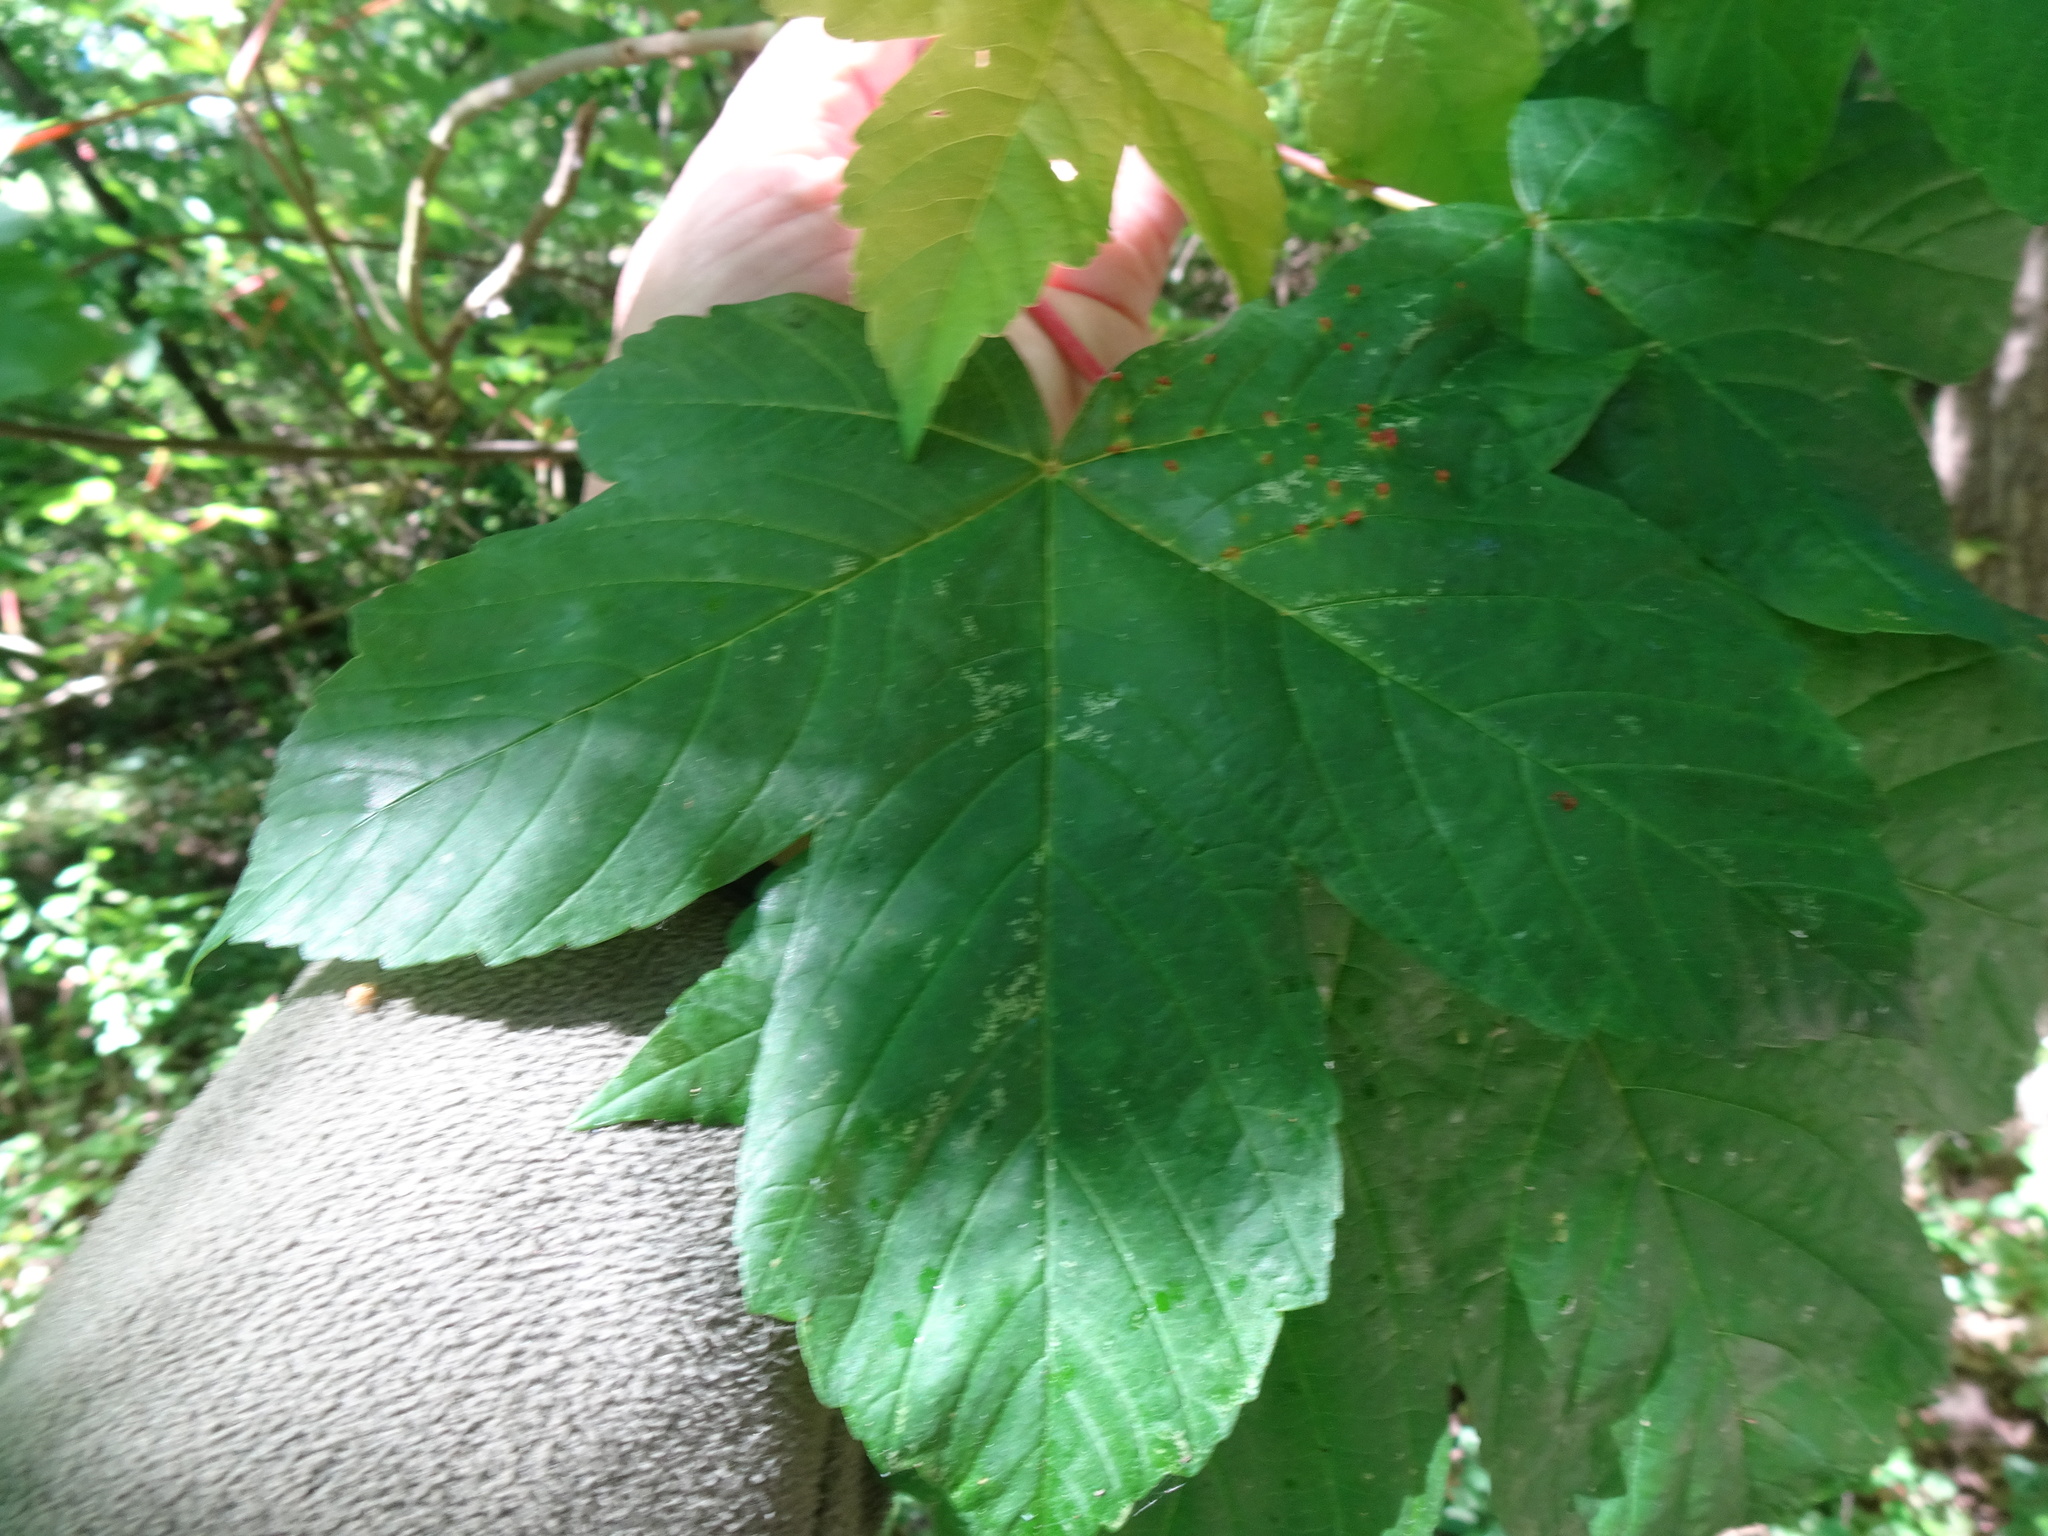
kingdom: Plantae
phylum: Tracheophyta
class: Magnoliopsida
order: Sapindales
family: Sapindaceae
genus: Acer
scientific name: Acer pseudoplatanus
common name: Sycamore
